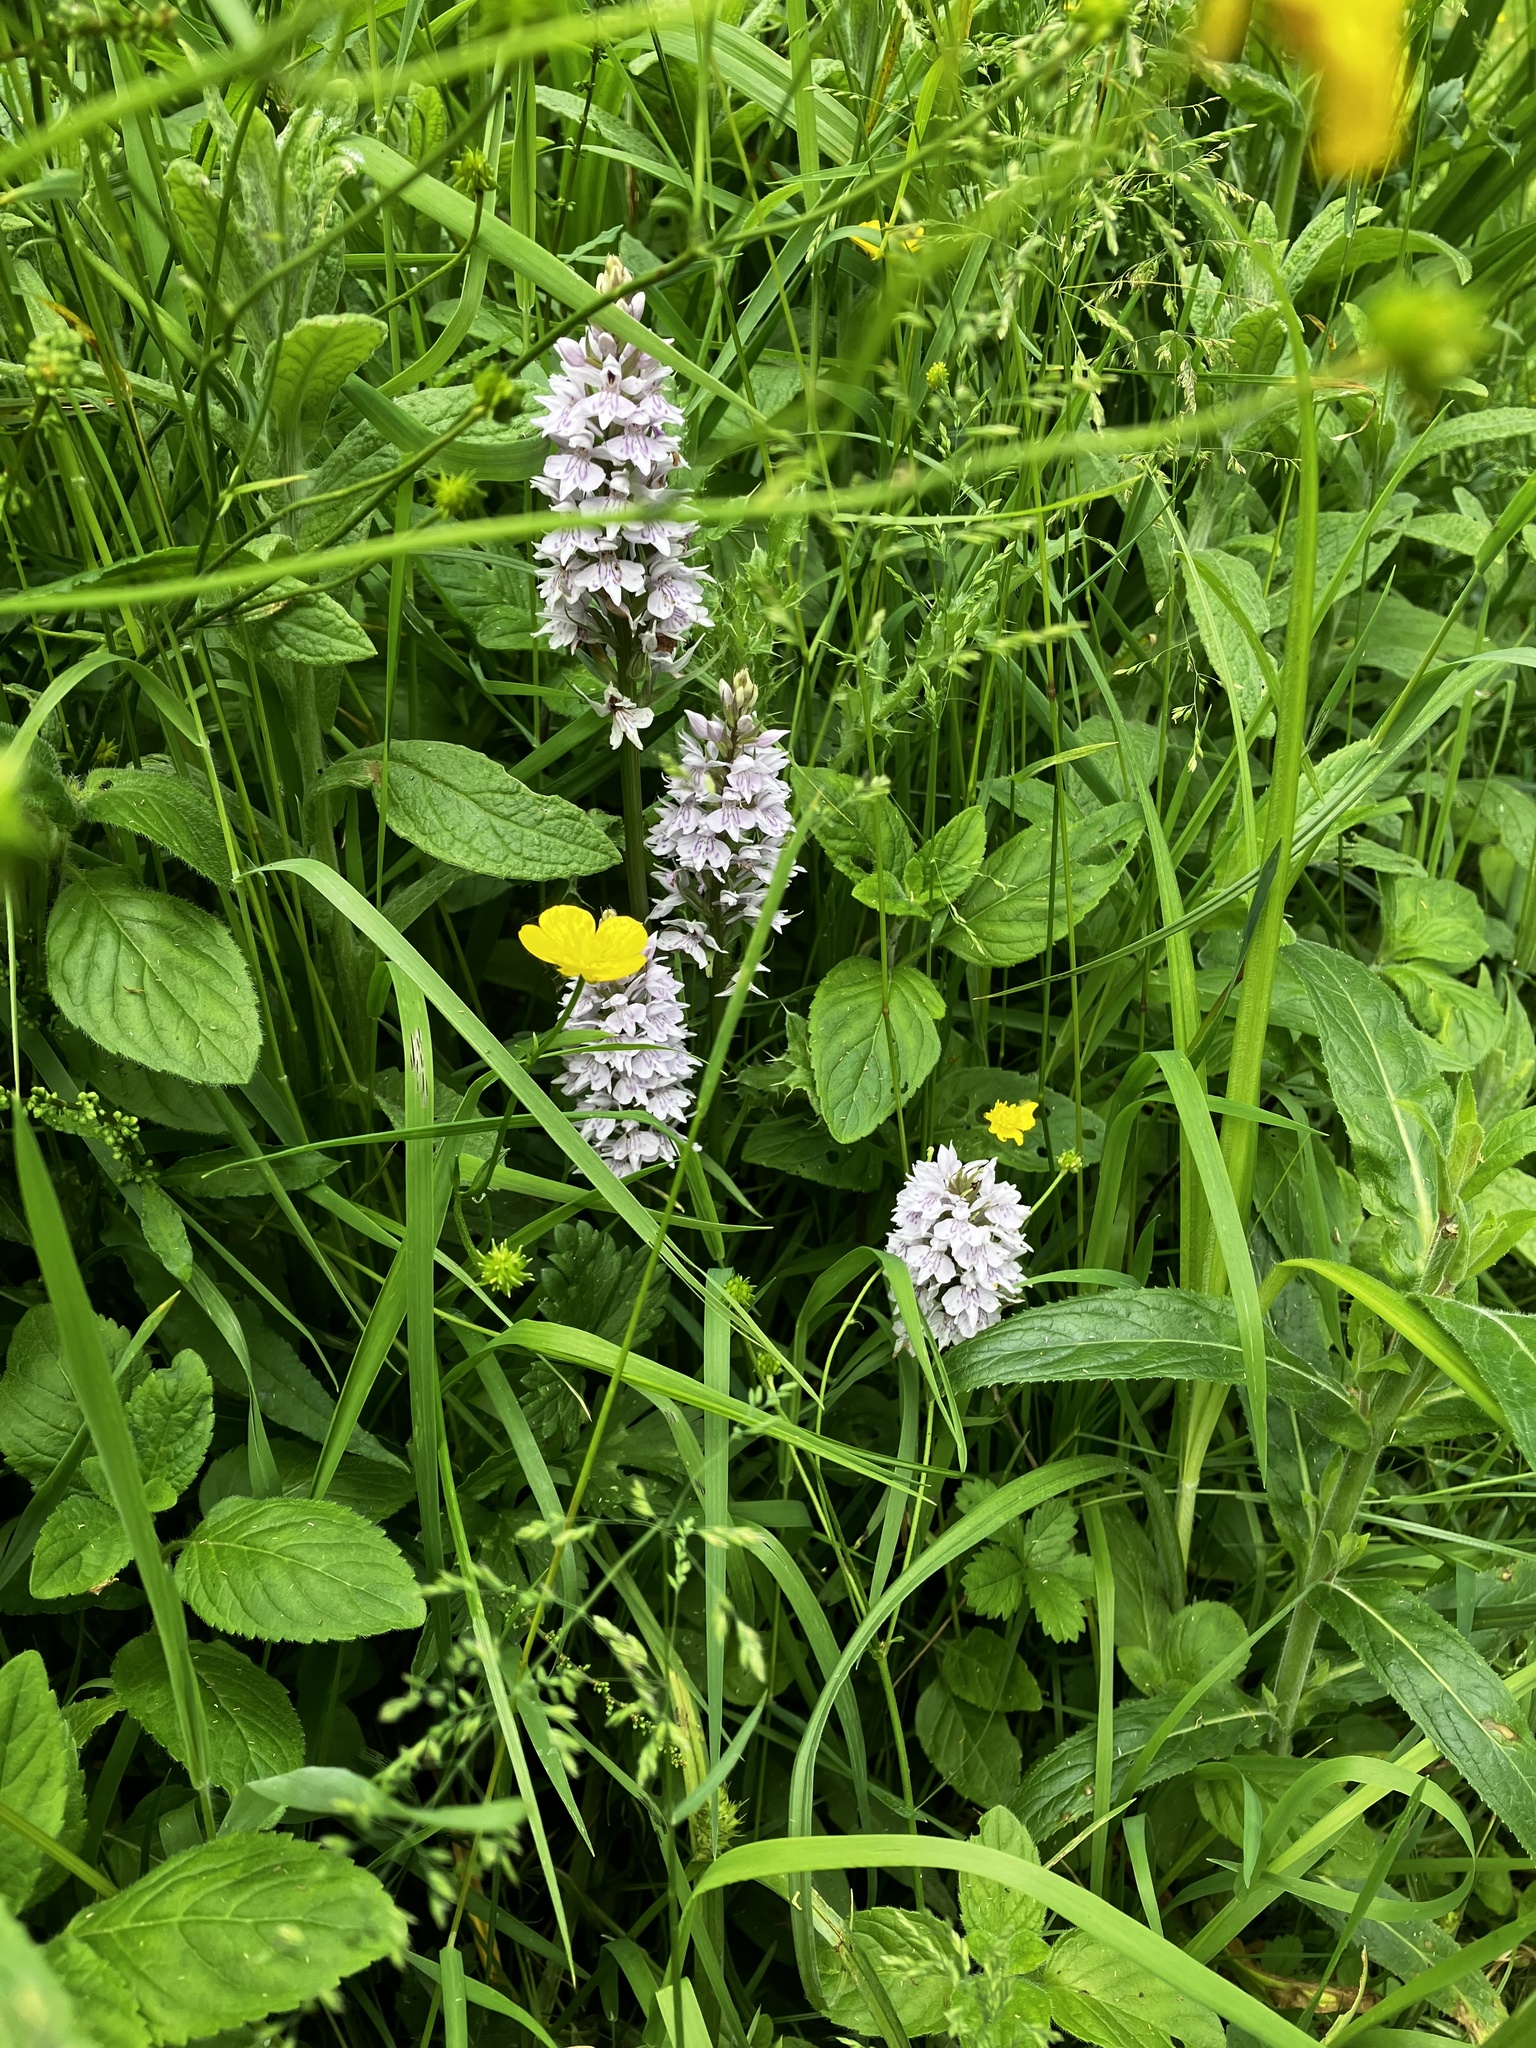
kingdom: Plantae
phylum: Tracheophyta
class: Liliopsida
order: Asparagales
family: Orchidaceae
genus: Dactylorhiza
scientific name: Dactylorhiza maculata
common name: Heath spotted-orchid
